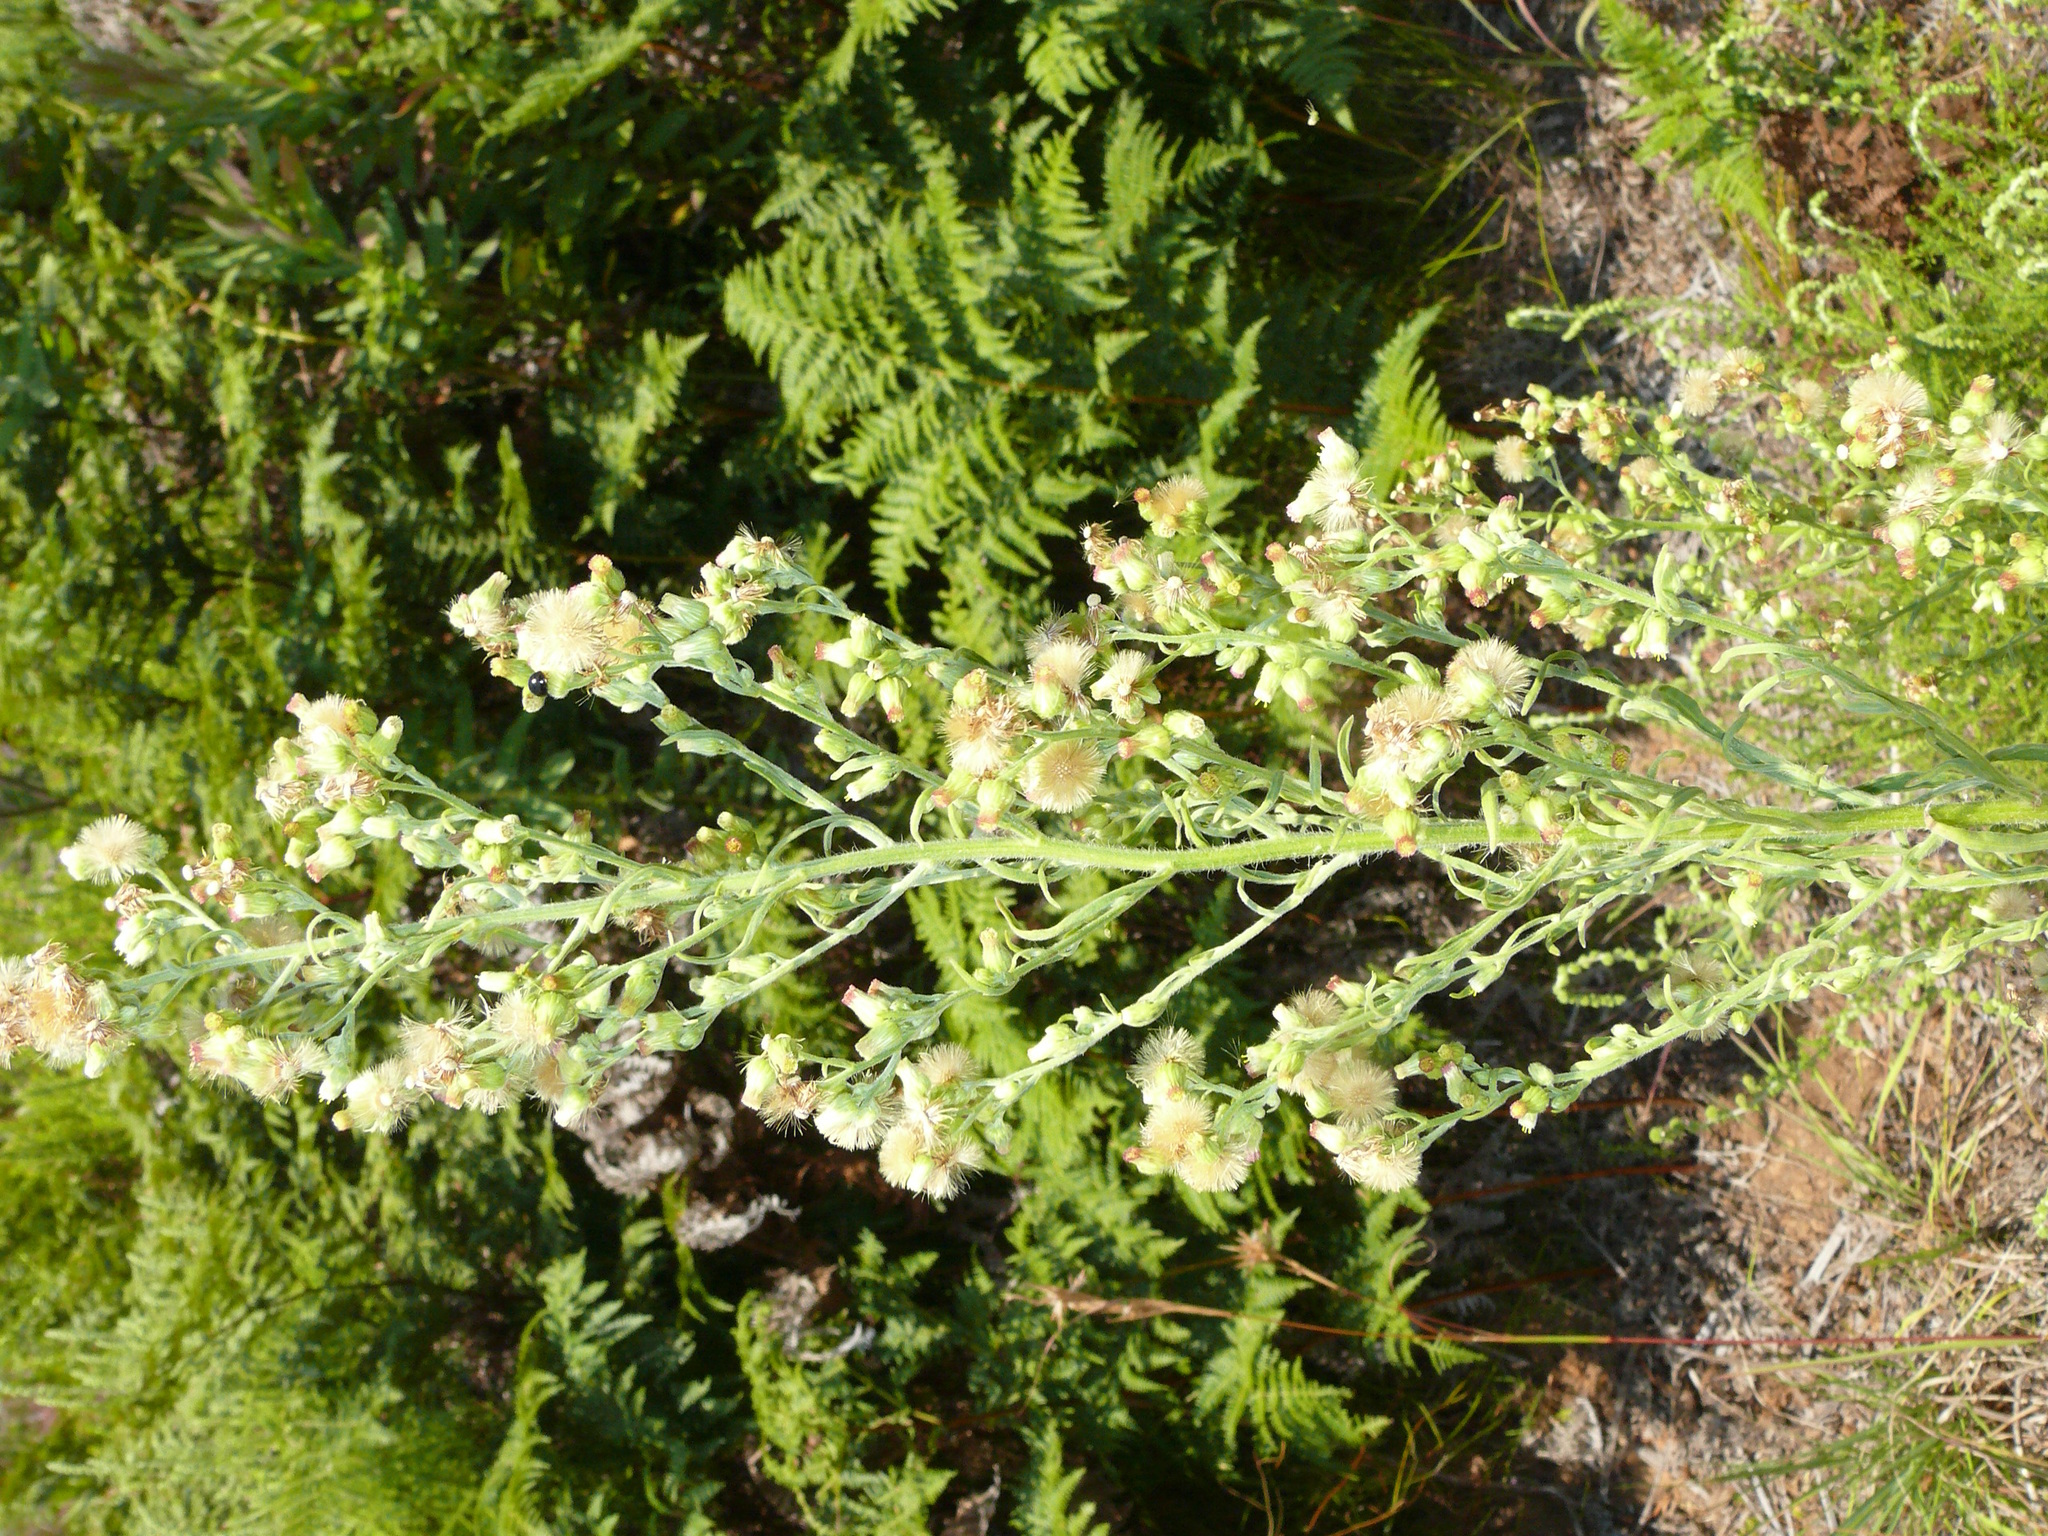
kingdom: Plantae
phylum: Tracheophyta
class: Magnoliopsida
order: Asterales
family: Asteraceae
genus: Erigeron
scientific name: Erigeron sumatrensis
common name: Daisy
